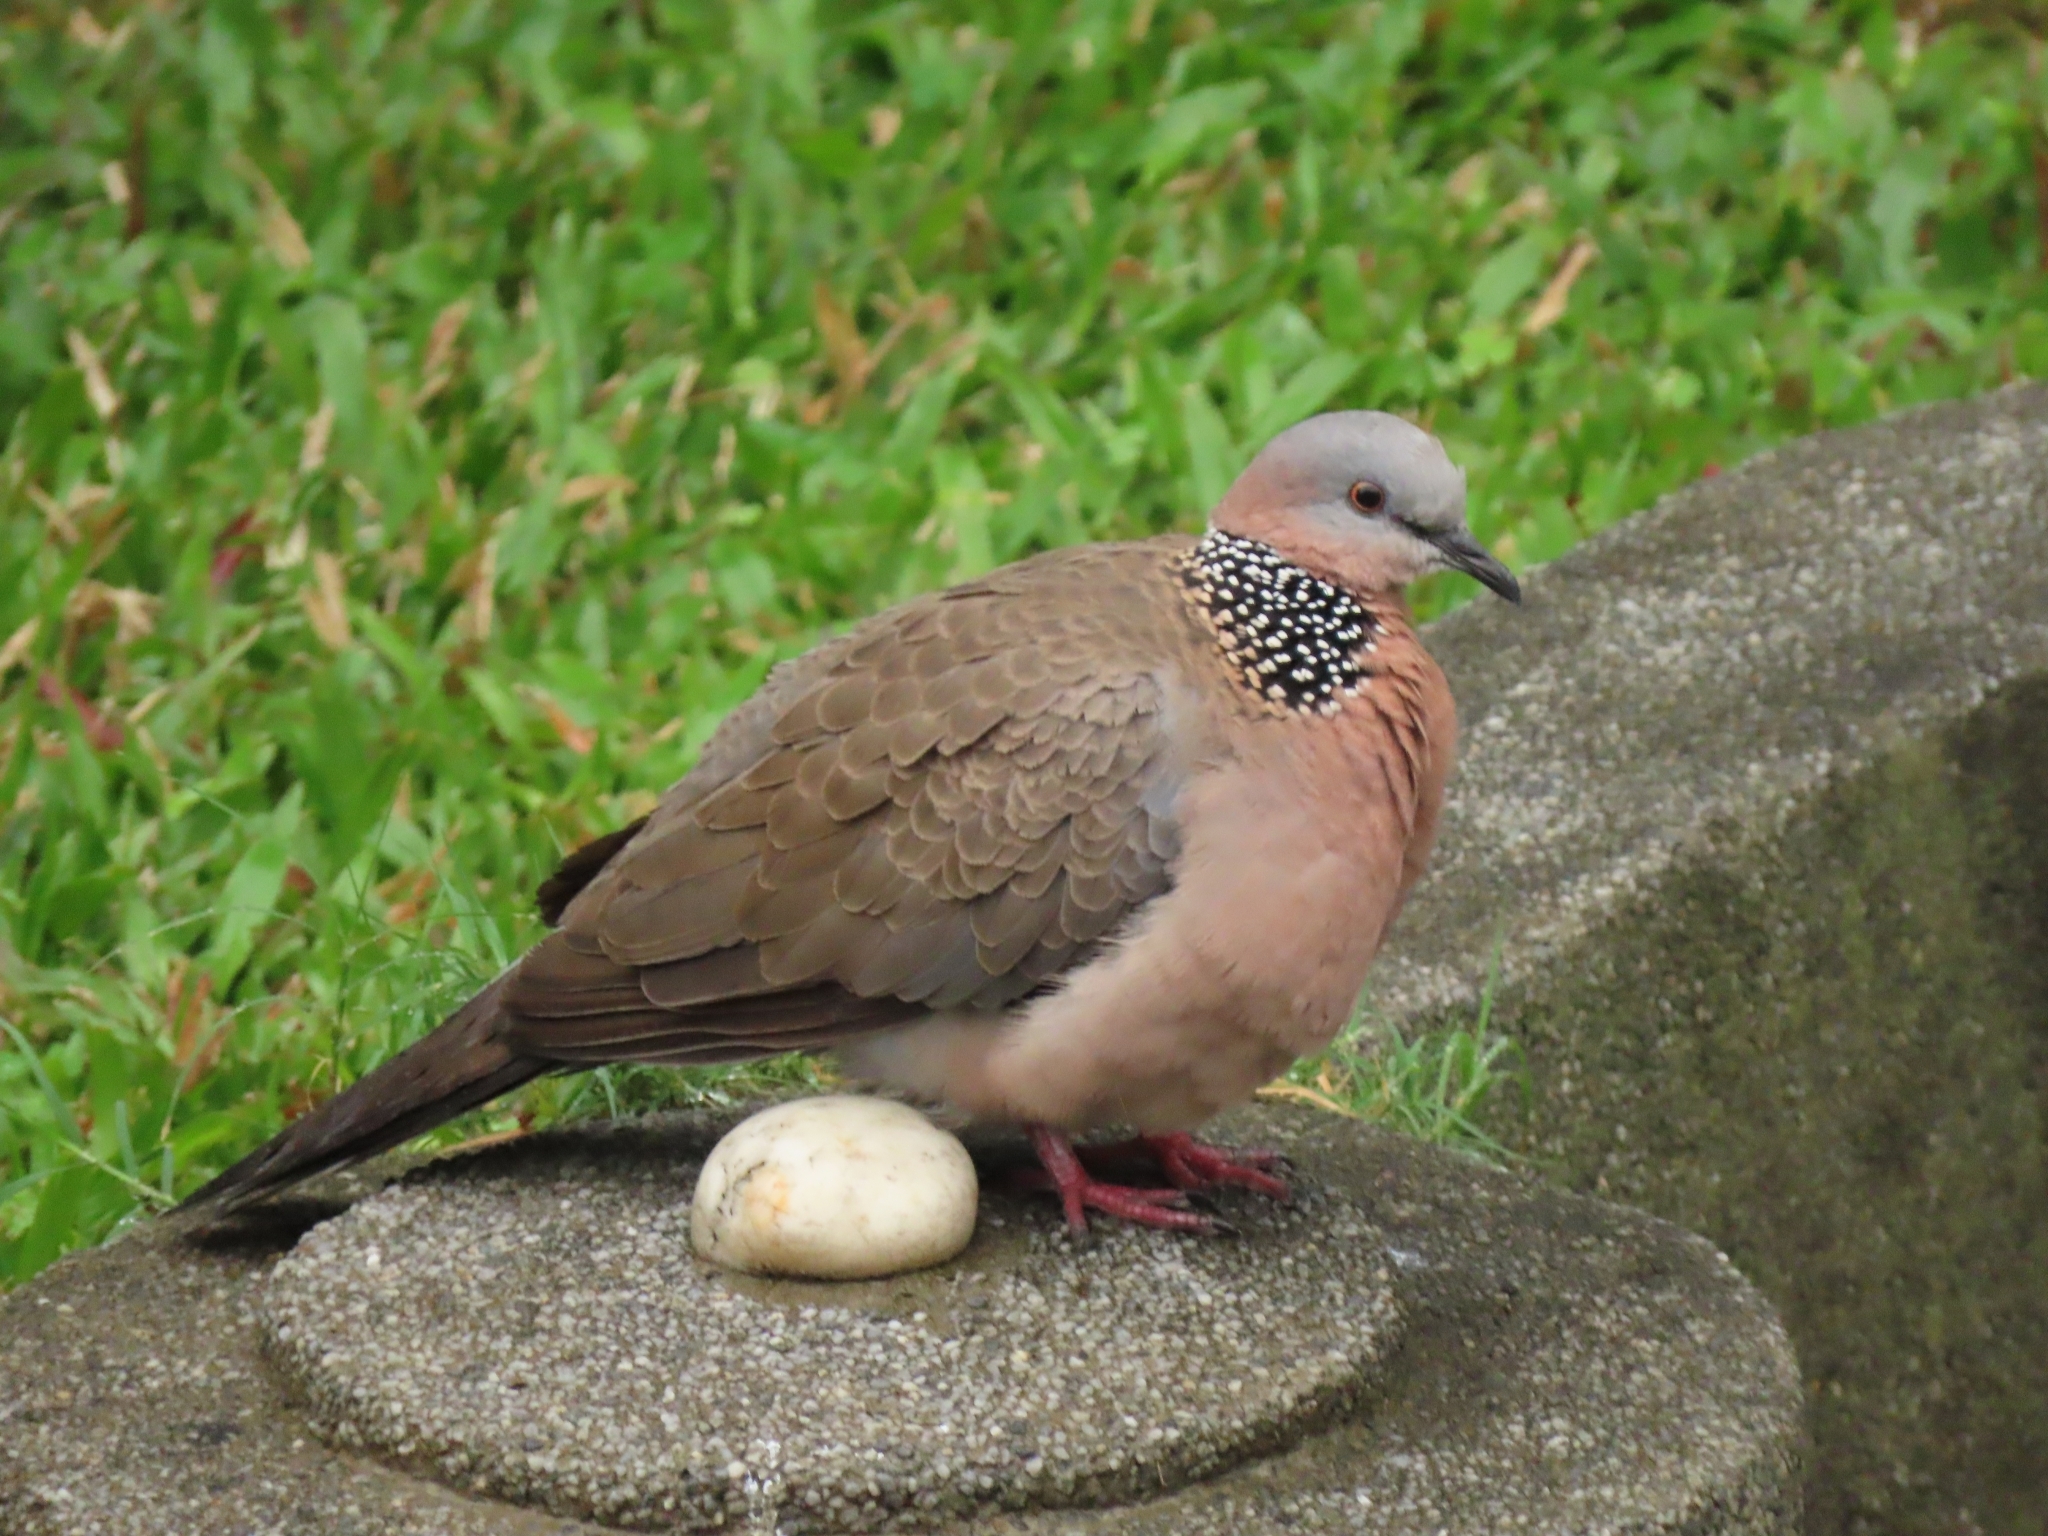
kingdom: Animalia
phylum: Chordata
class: Aves
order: Columbiformes
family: Columbidae
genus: Spilopelia
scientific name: Spilopelia chinensis
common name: Spotted dove
